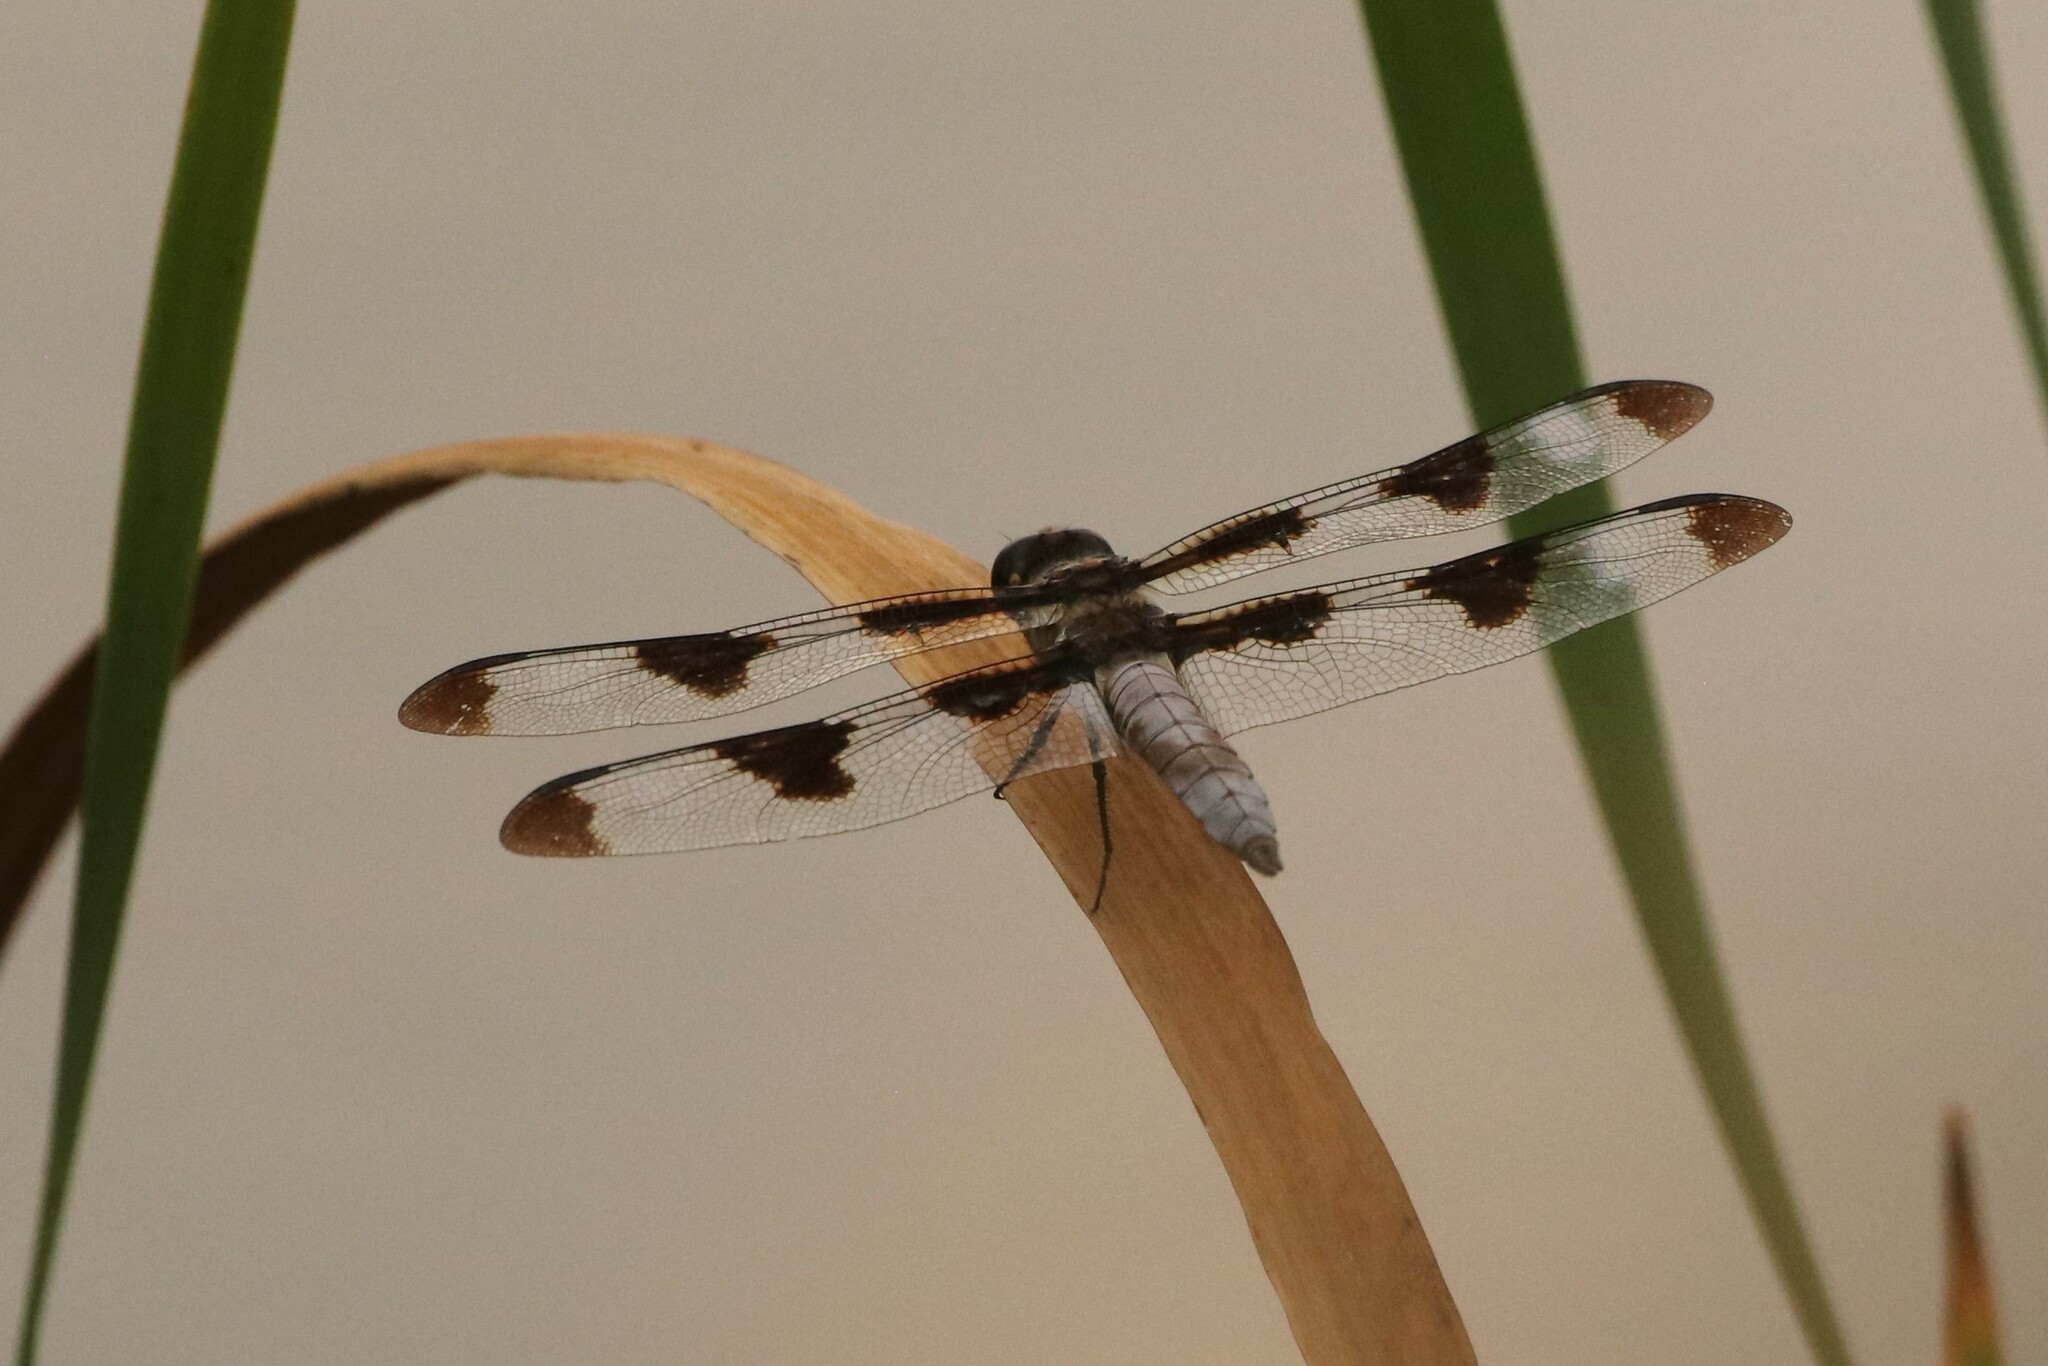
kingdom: Animalia
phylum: Arthropoda
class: Insecta
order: Odonata
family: Libellulidae
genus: Libellula
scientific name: Libellula pulchella
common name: Twelve-spotted skimmer
